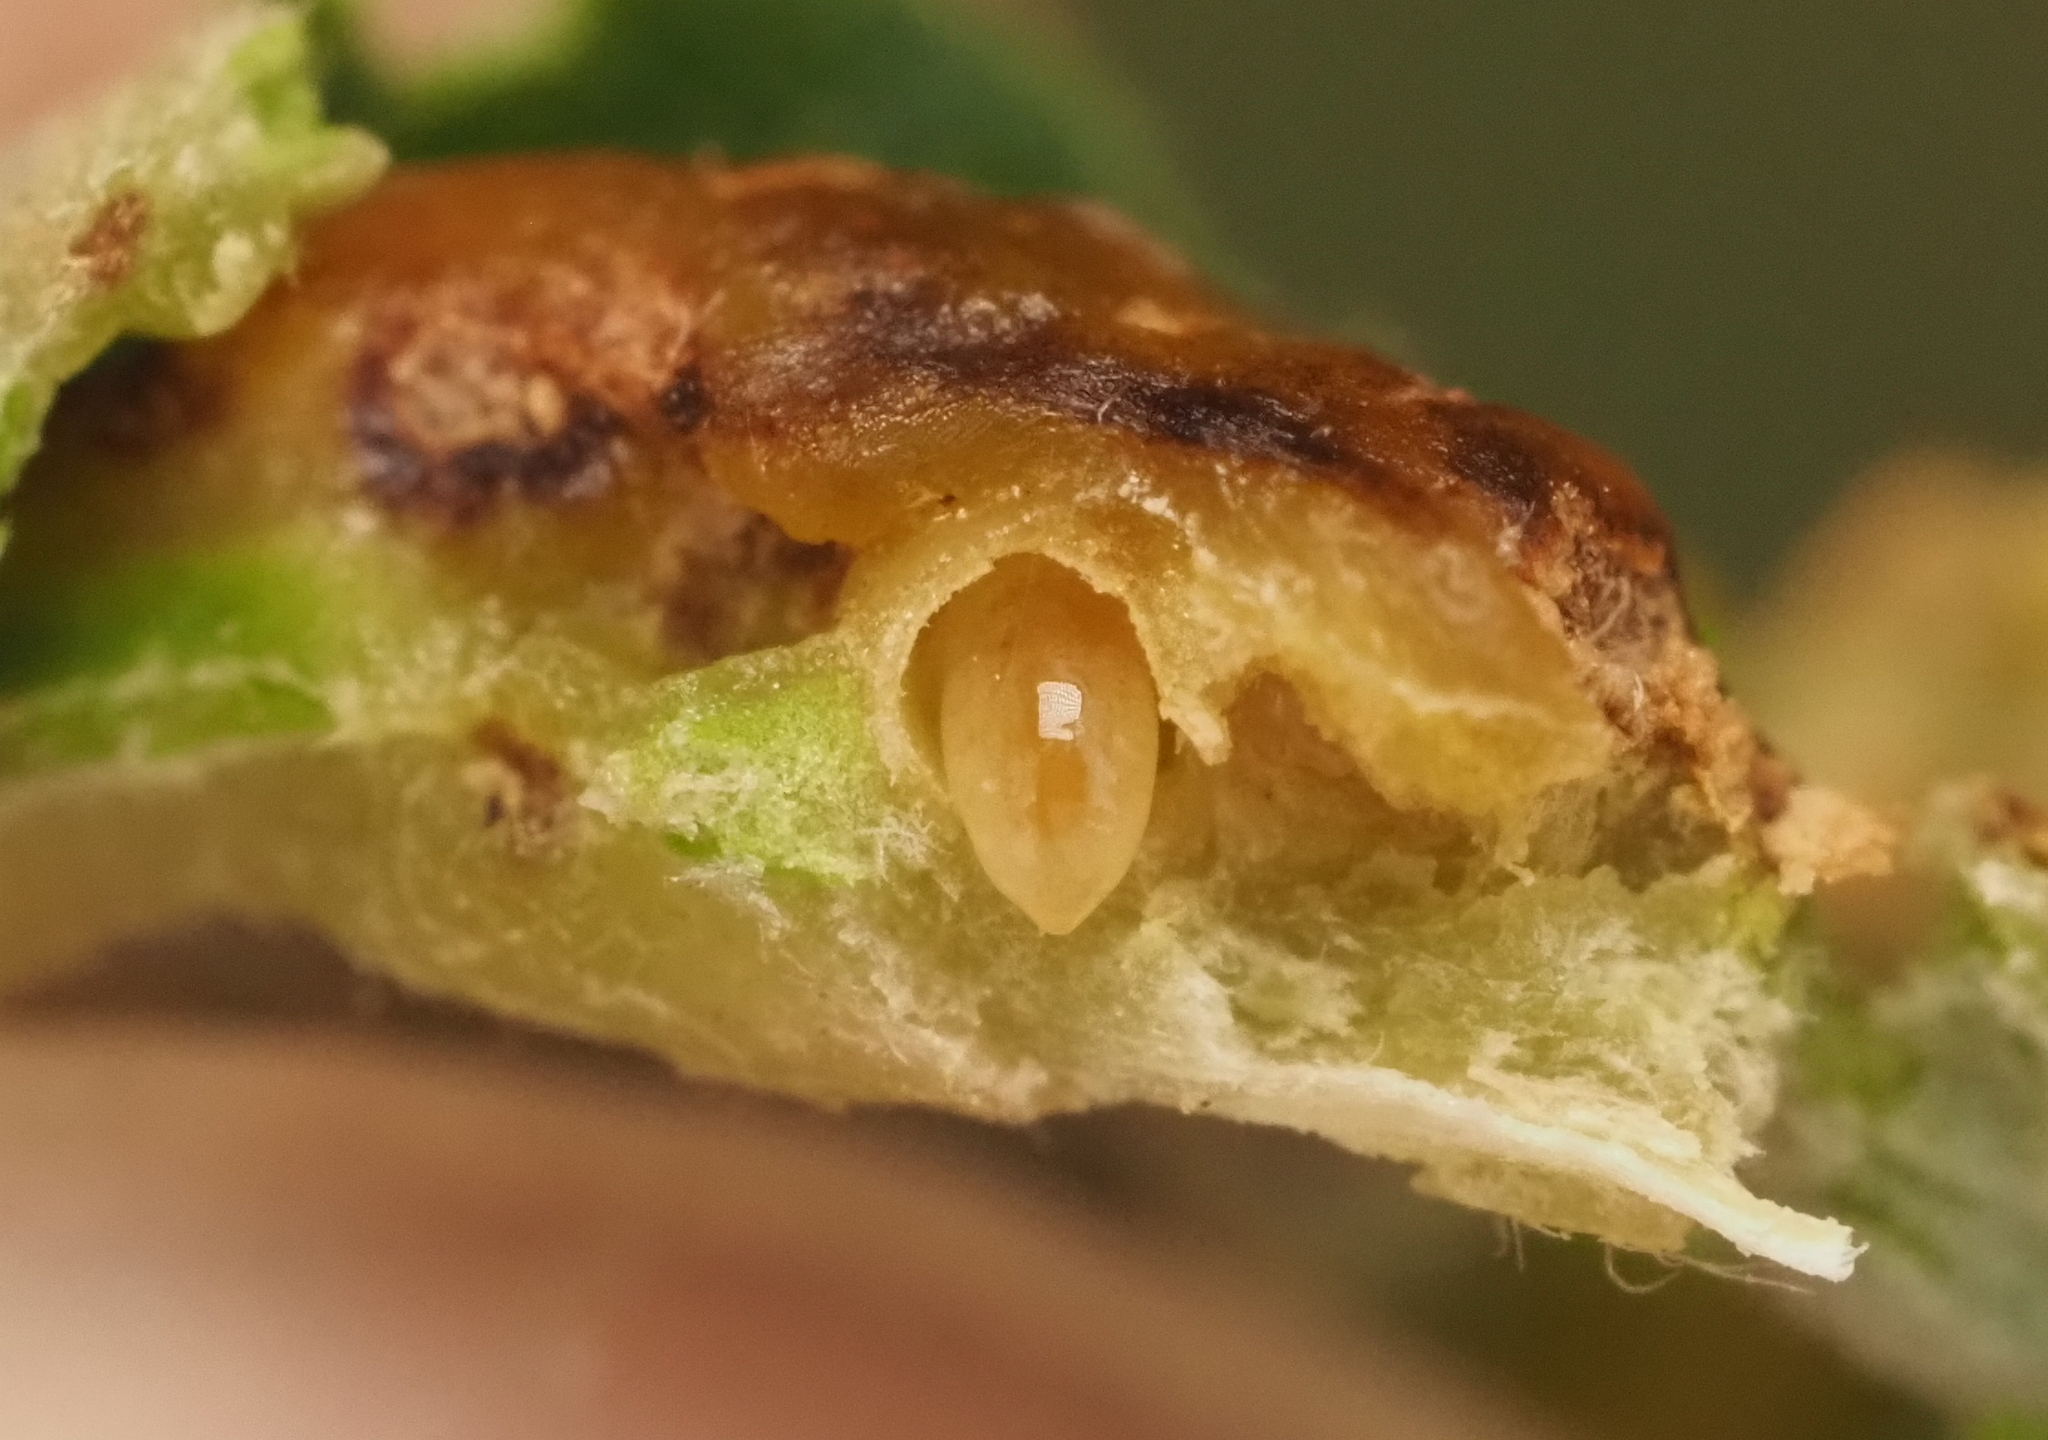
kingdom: Animalia
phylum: Arthropoda
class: Insecta
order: Hymenoptera
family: Cynipidae
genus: Bassettia
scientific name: Bassettia flavipes
